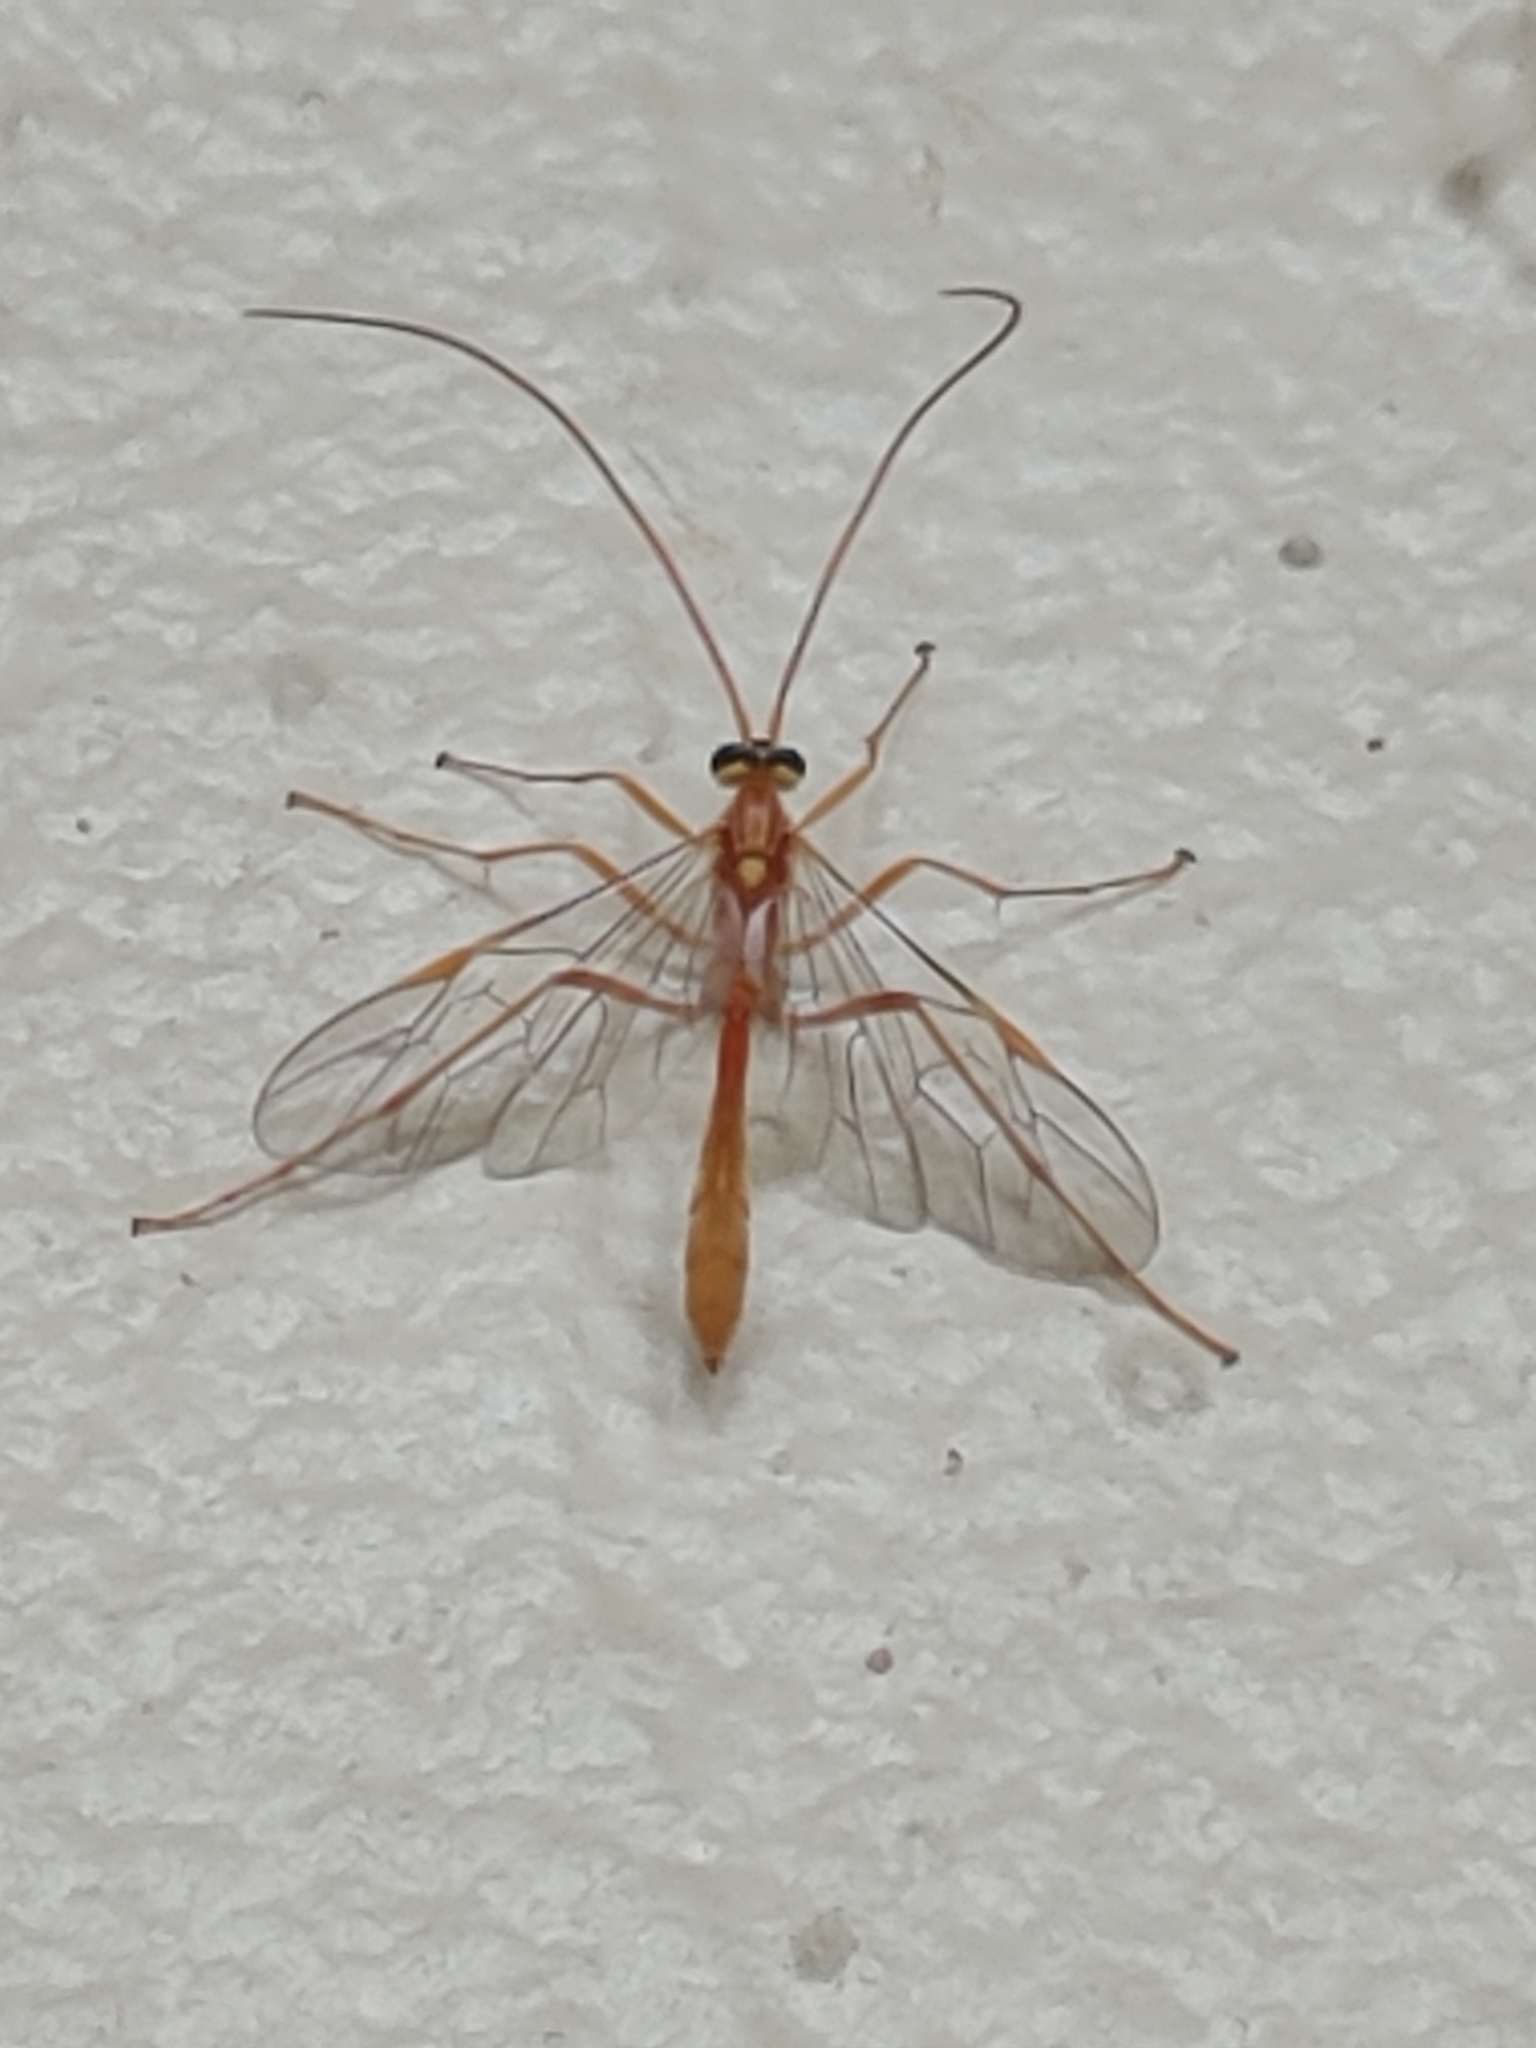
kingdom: Animalia
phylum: Arthropoda
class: Insecta
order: Hymenoptera
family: Ichneumonidae
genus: Ophion
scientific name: Ophion
